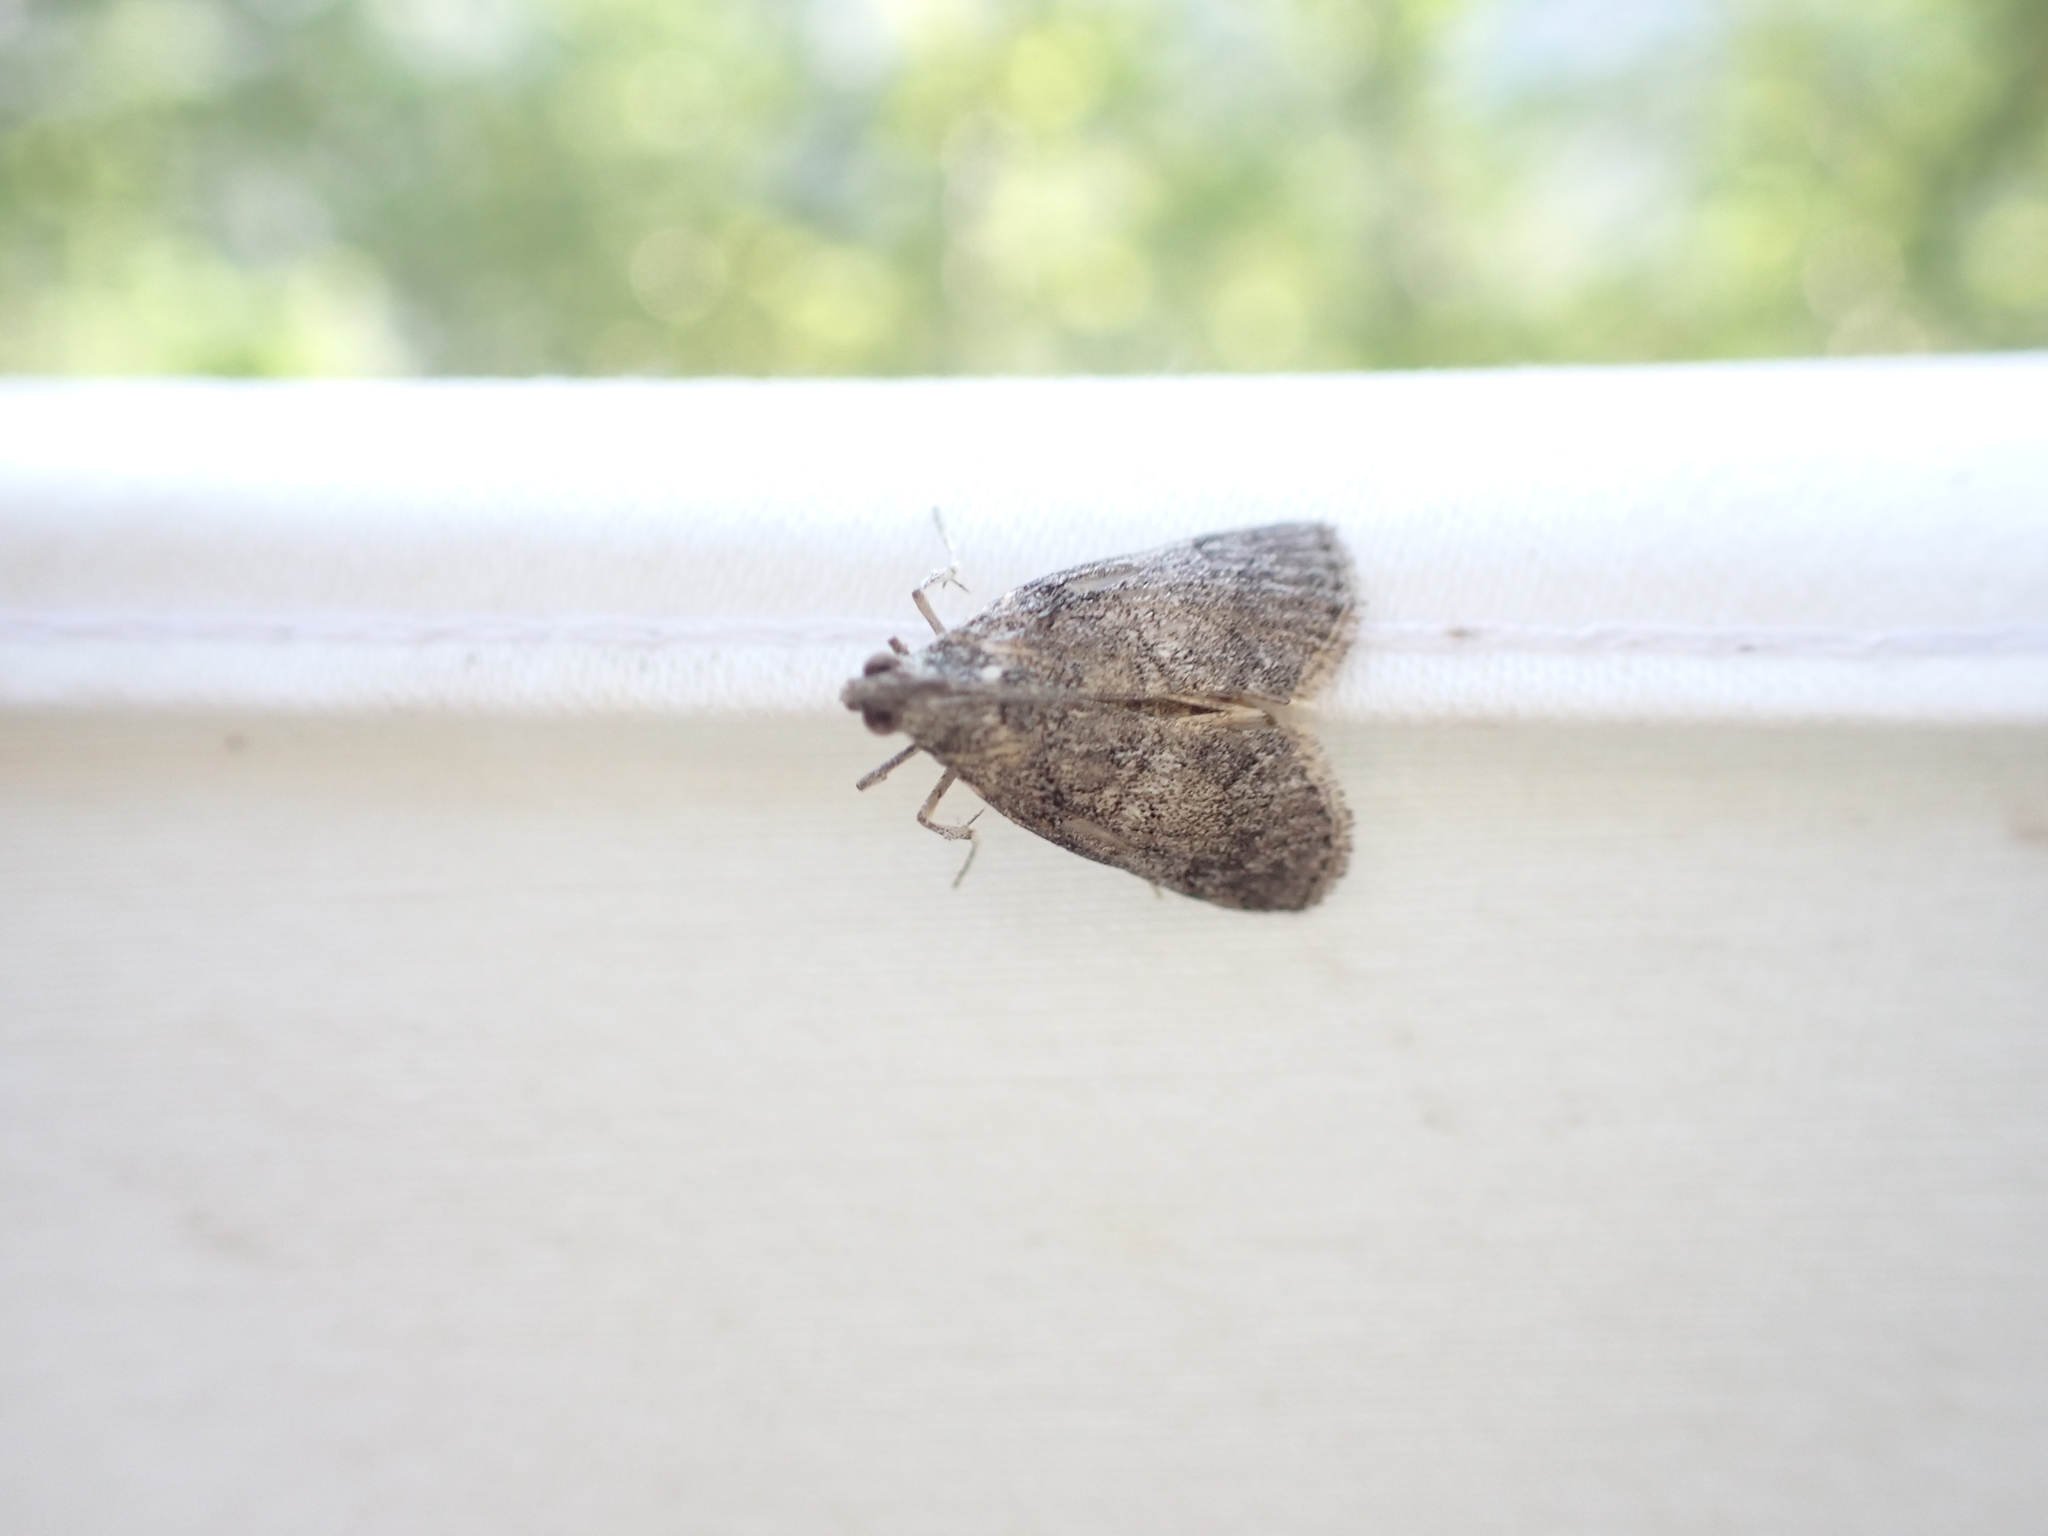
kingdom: Animalia
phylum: Arthropoda
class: Insecta
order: Lepidoptera
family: Pyralidae
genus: Pococera
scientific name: Pococera asperatella
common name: Maple webworm moth
